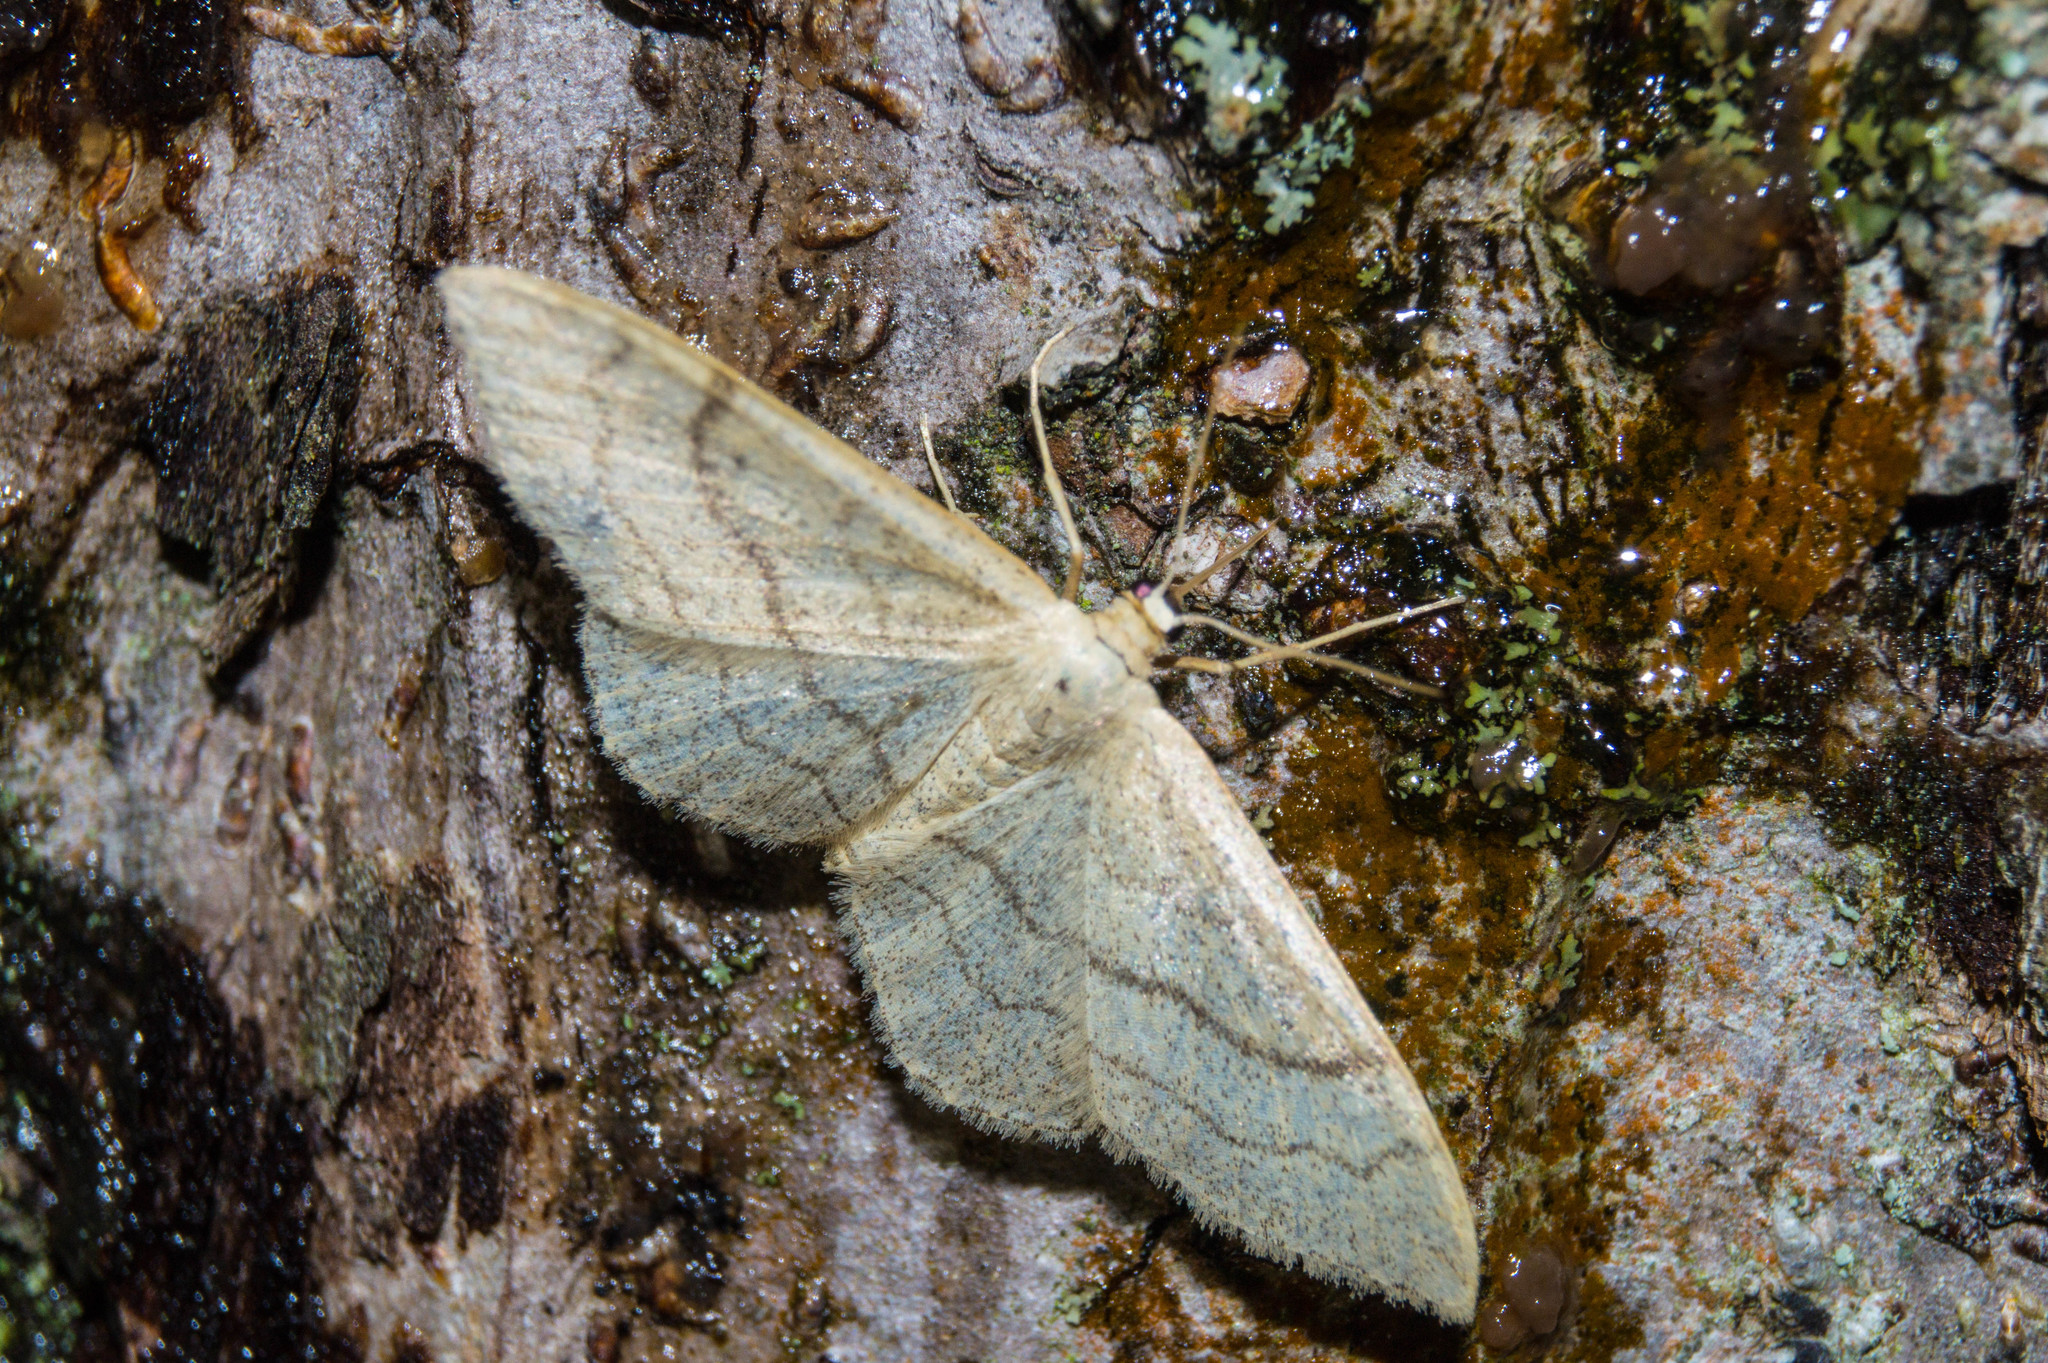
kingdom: Animalia
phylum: Arthropoda
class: Insecta
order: Lepidoptera
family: Geometridae
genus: Idaea
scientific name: Idaea aversata
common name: Riband wave
